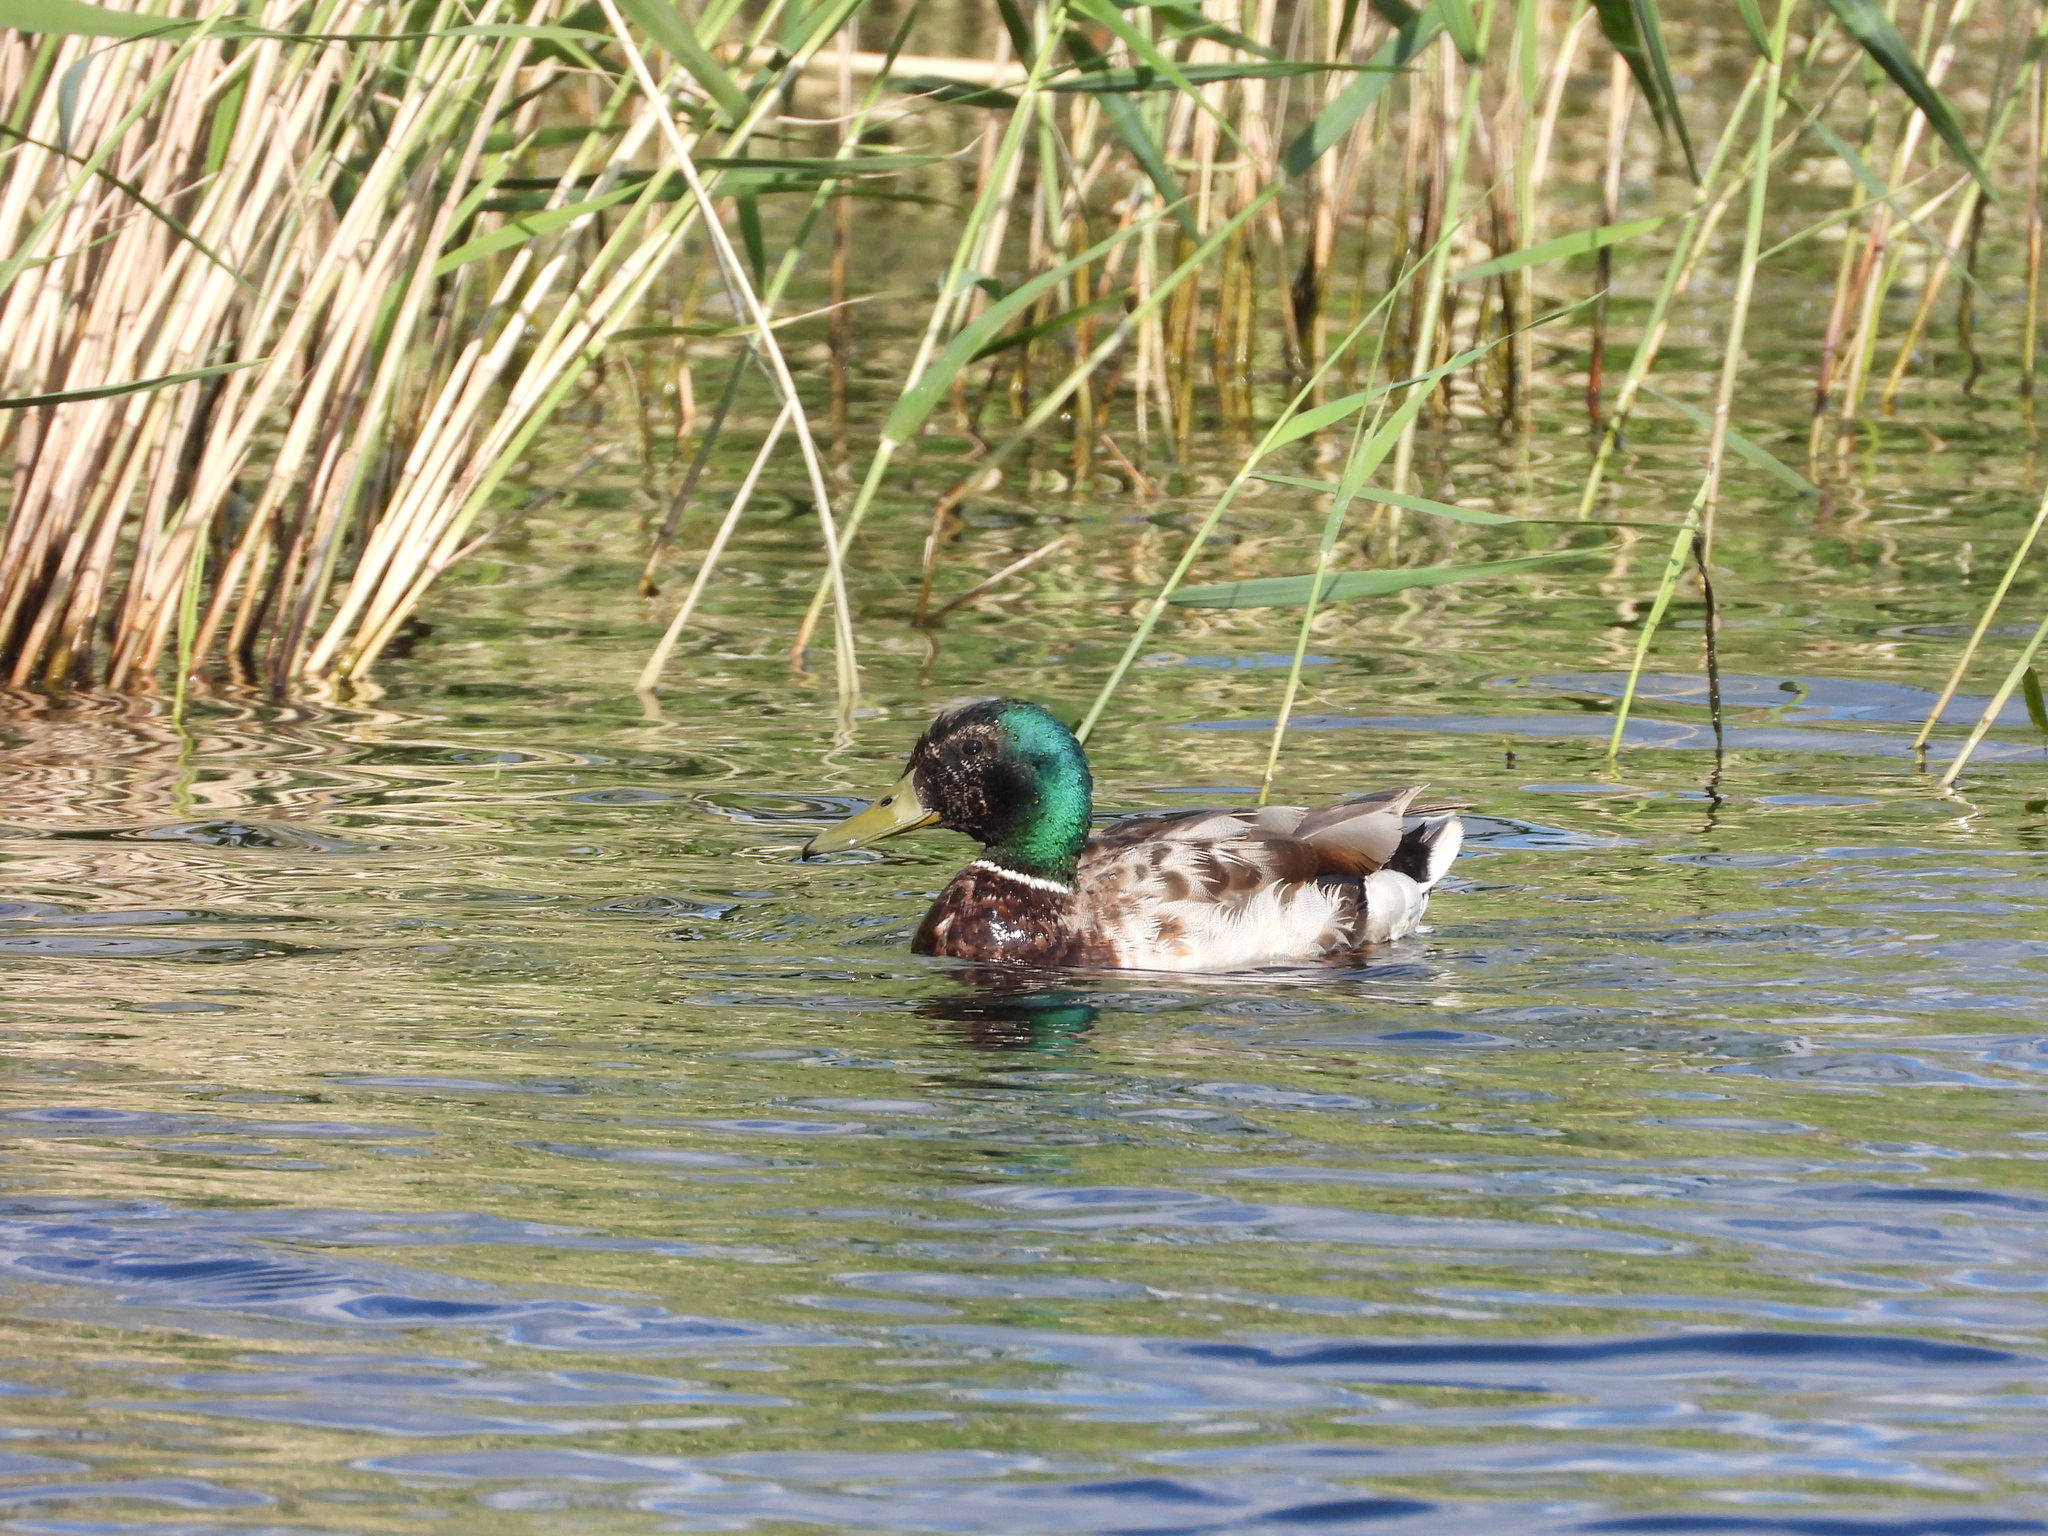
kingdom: Animalia
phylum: Chordata
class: Aves
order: Anseriformes
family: Anatidae
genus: Anas
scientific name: Anas platyrhynchos
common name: Mallard
